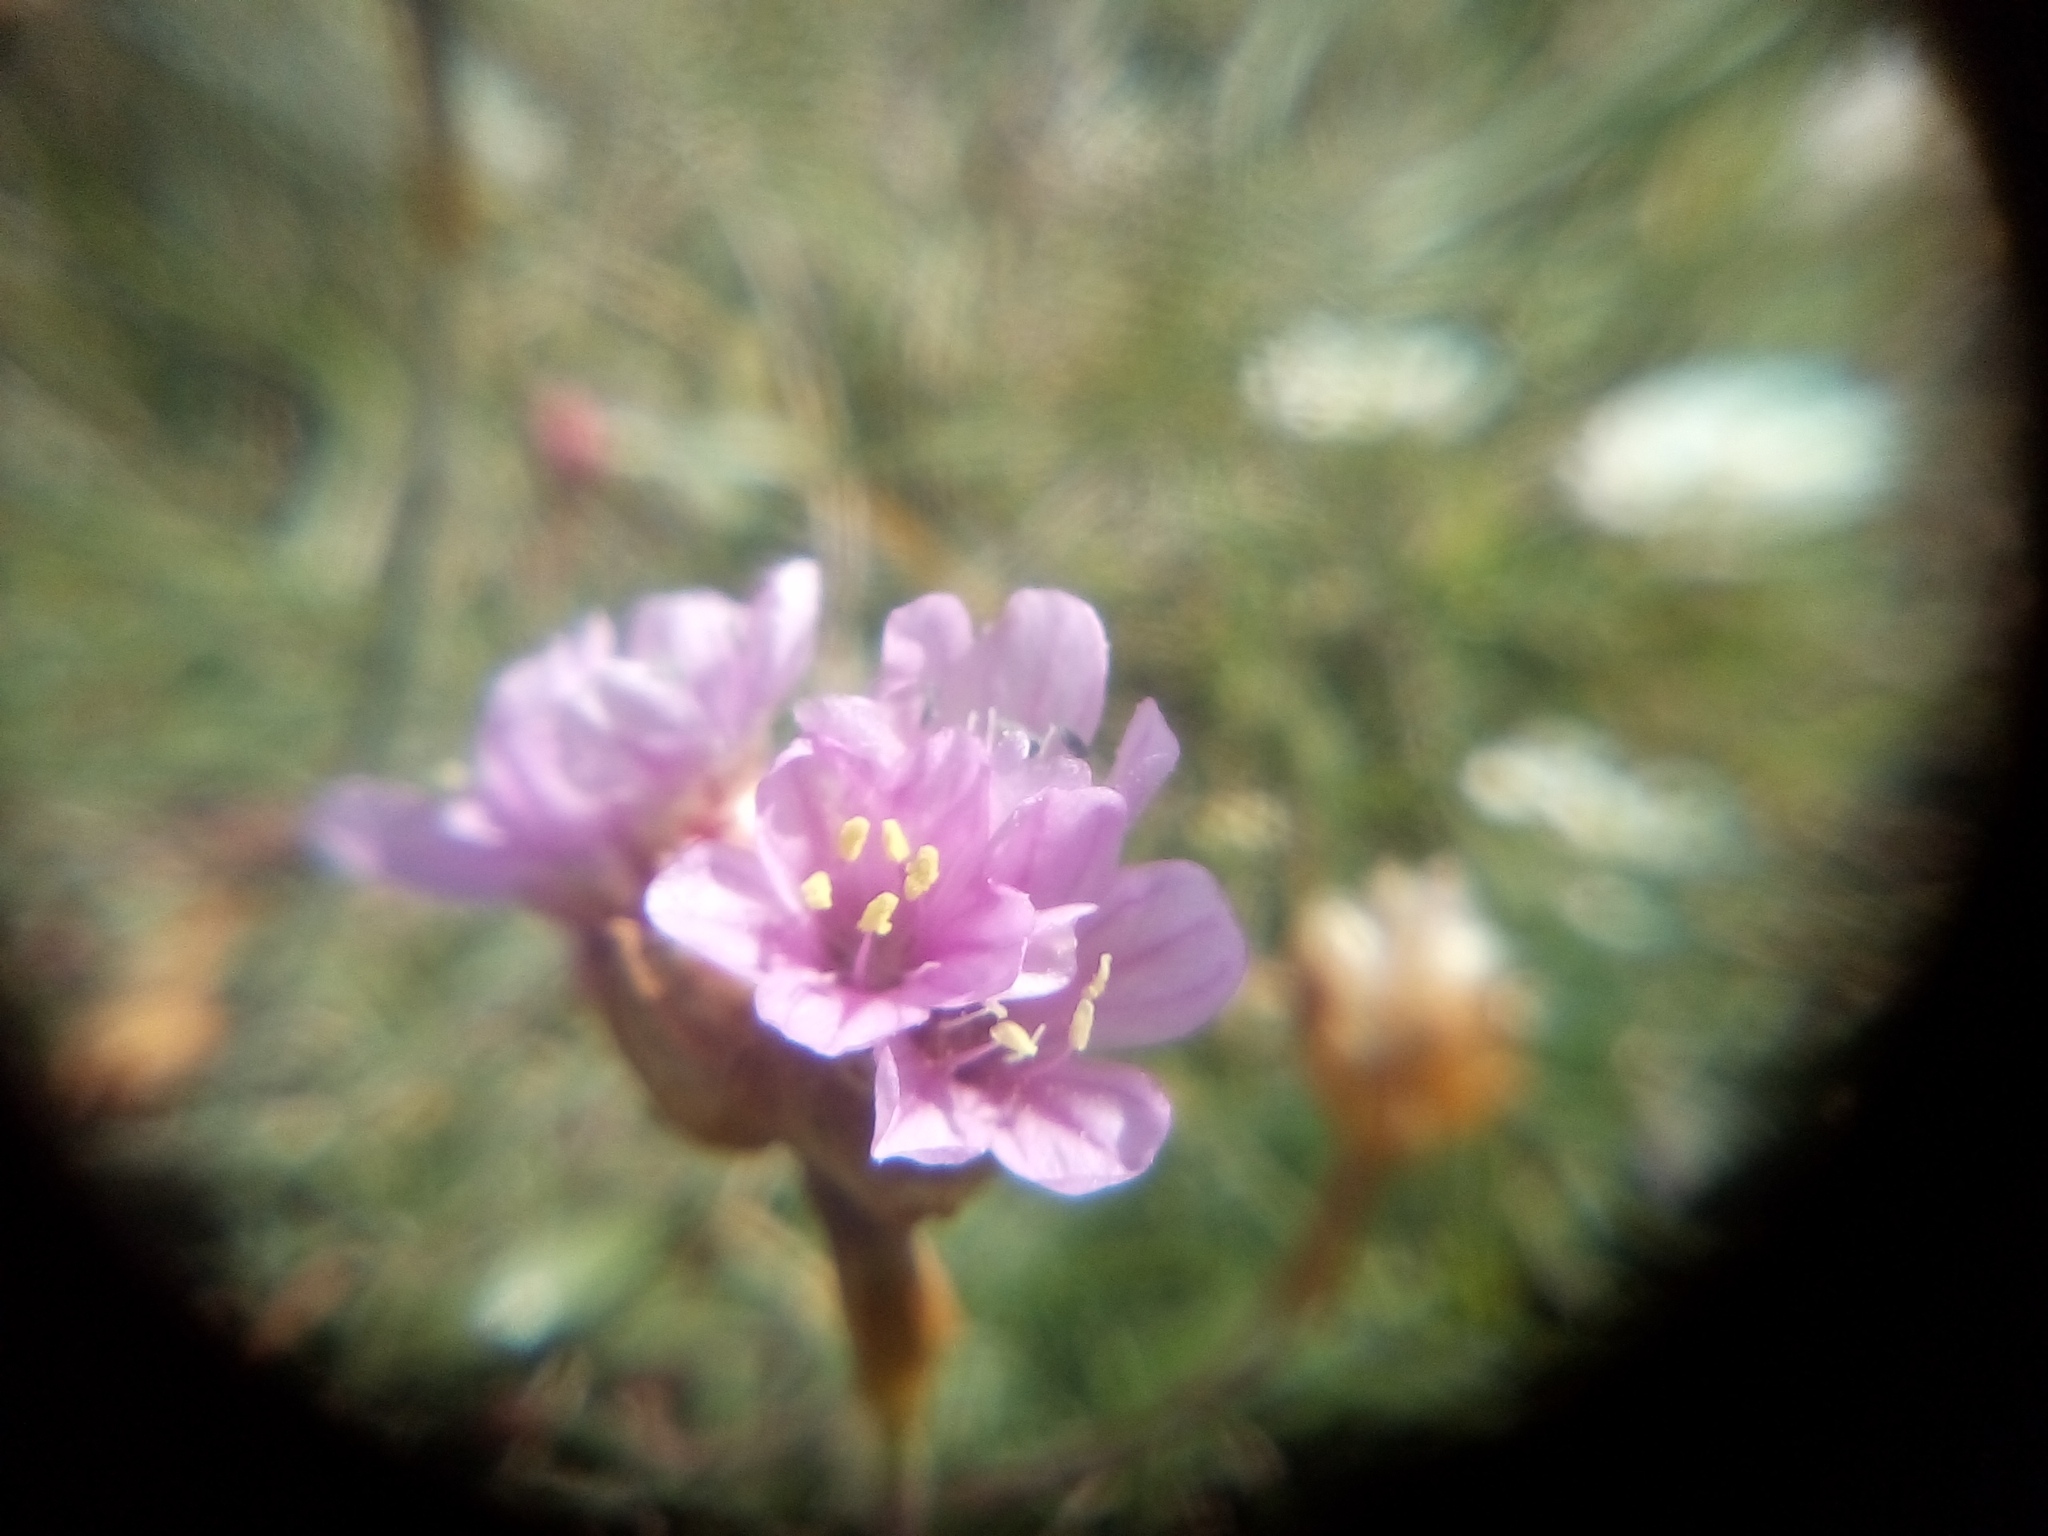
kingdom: Plantae
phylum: Tracheophyta
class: Magnoliopsida
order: Caryophyllales
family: Plumbaginaceae
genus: Armeria
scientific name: Armeria maritima
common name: Thrift
